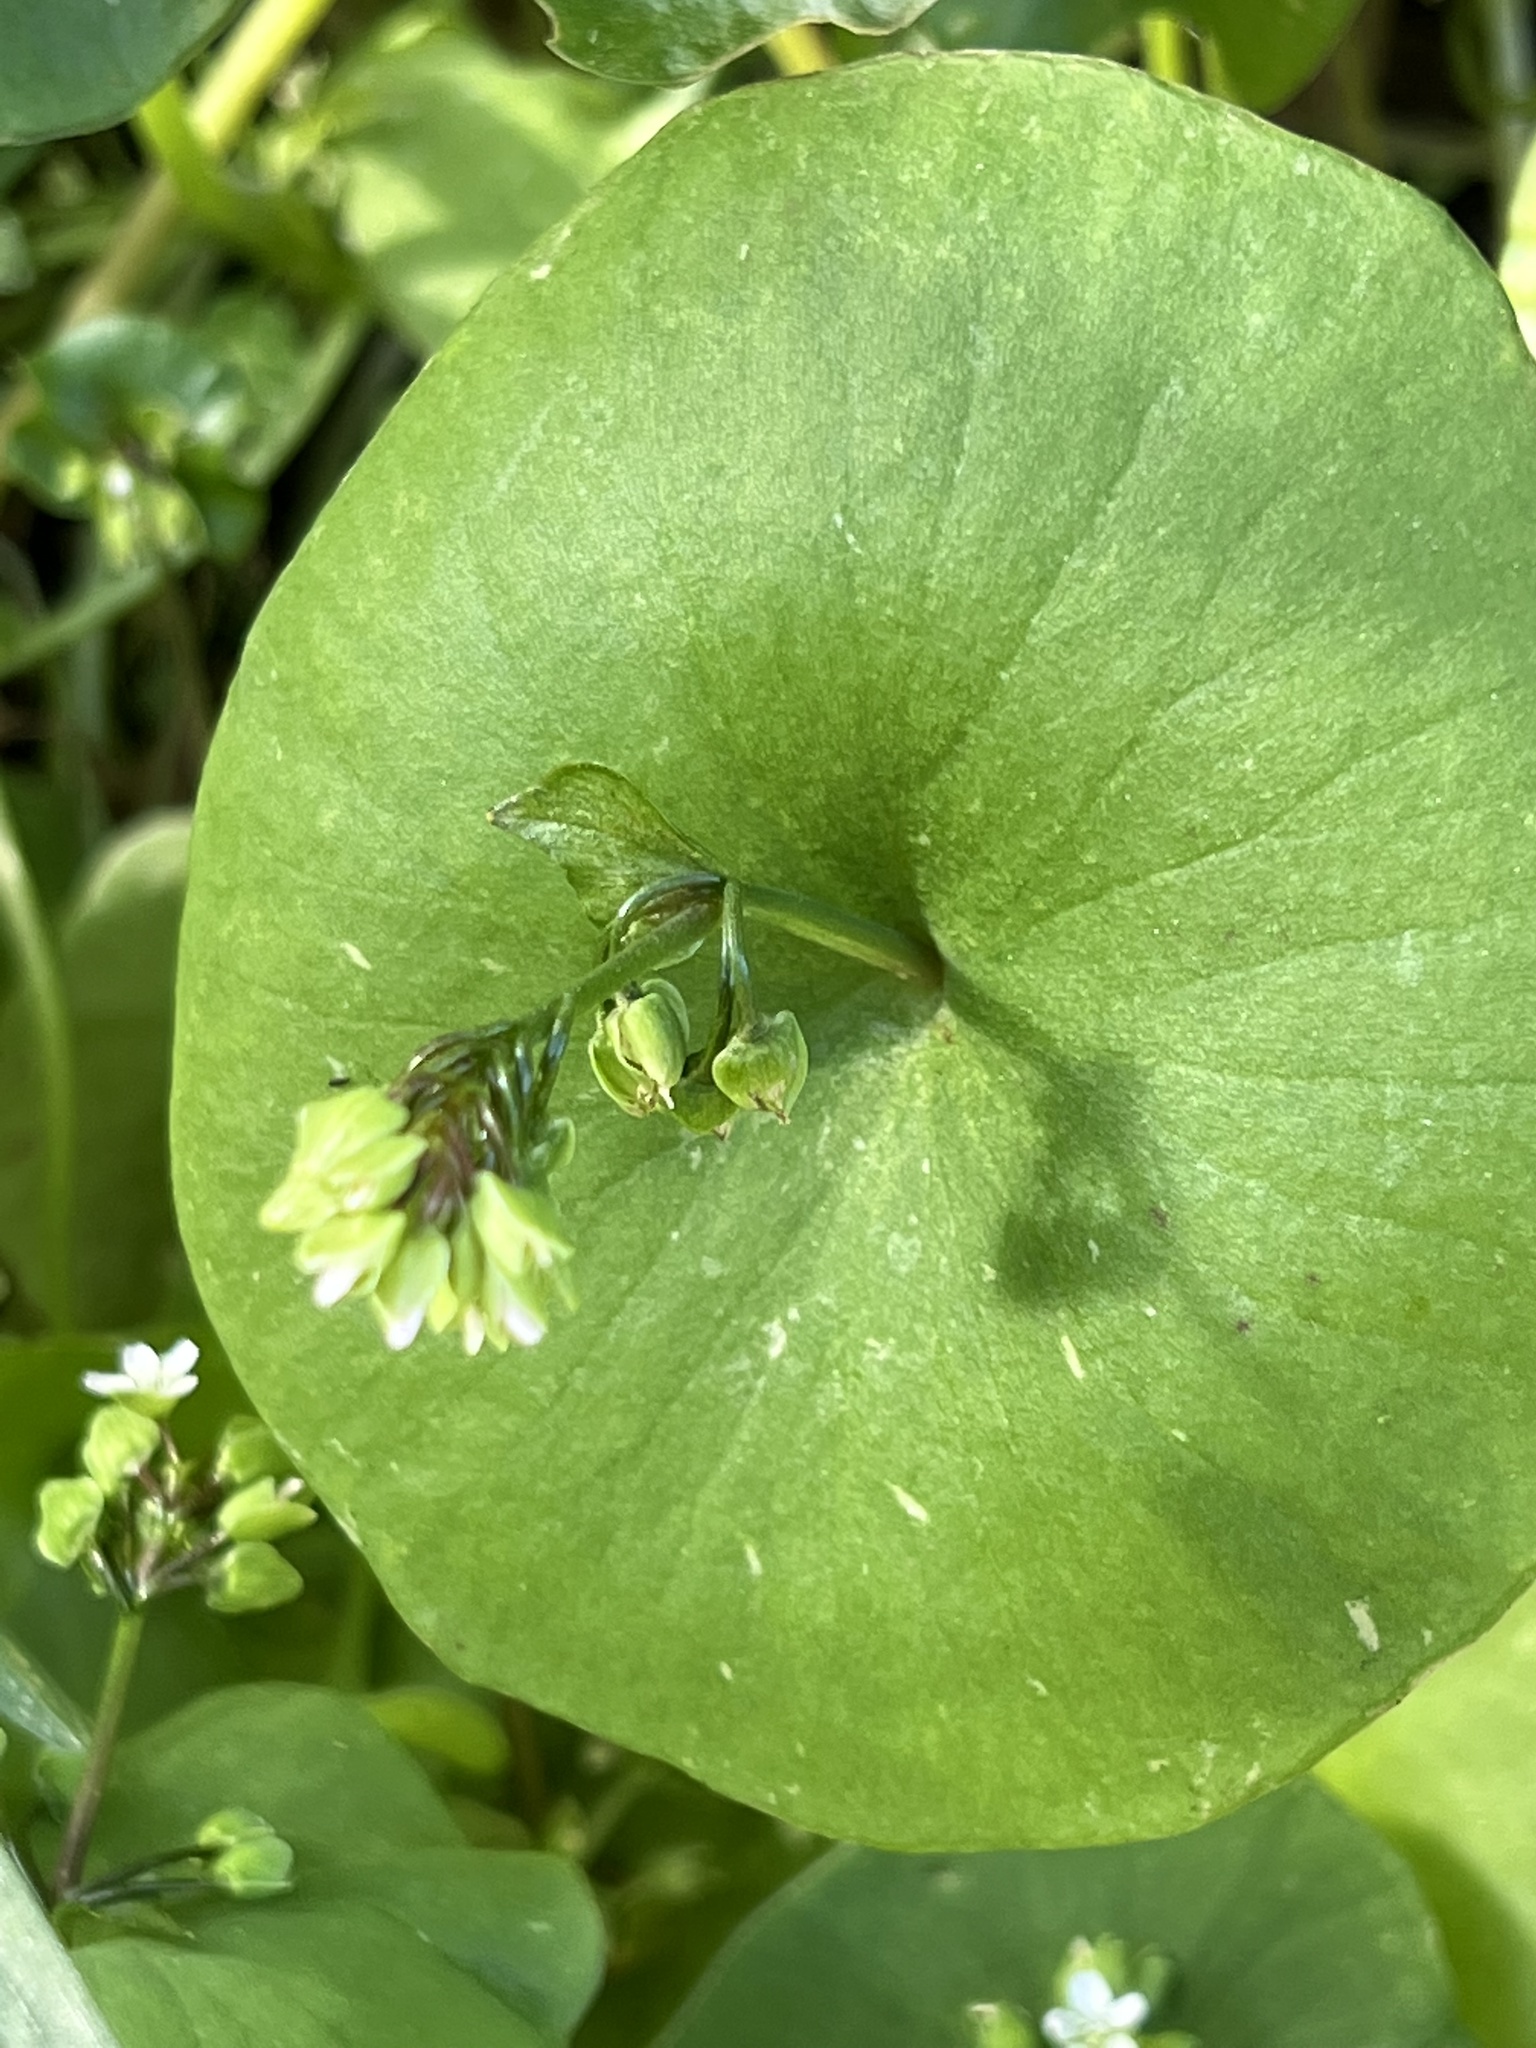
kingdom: Plantae
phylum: Tracheophyta
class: Magnoliopsida
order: Caryophyllales
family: Montiaceae
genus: Claytonia
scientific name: Claytonia perfoliata
